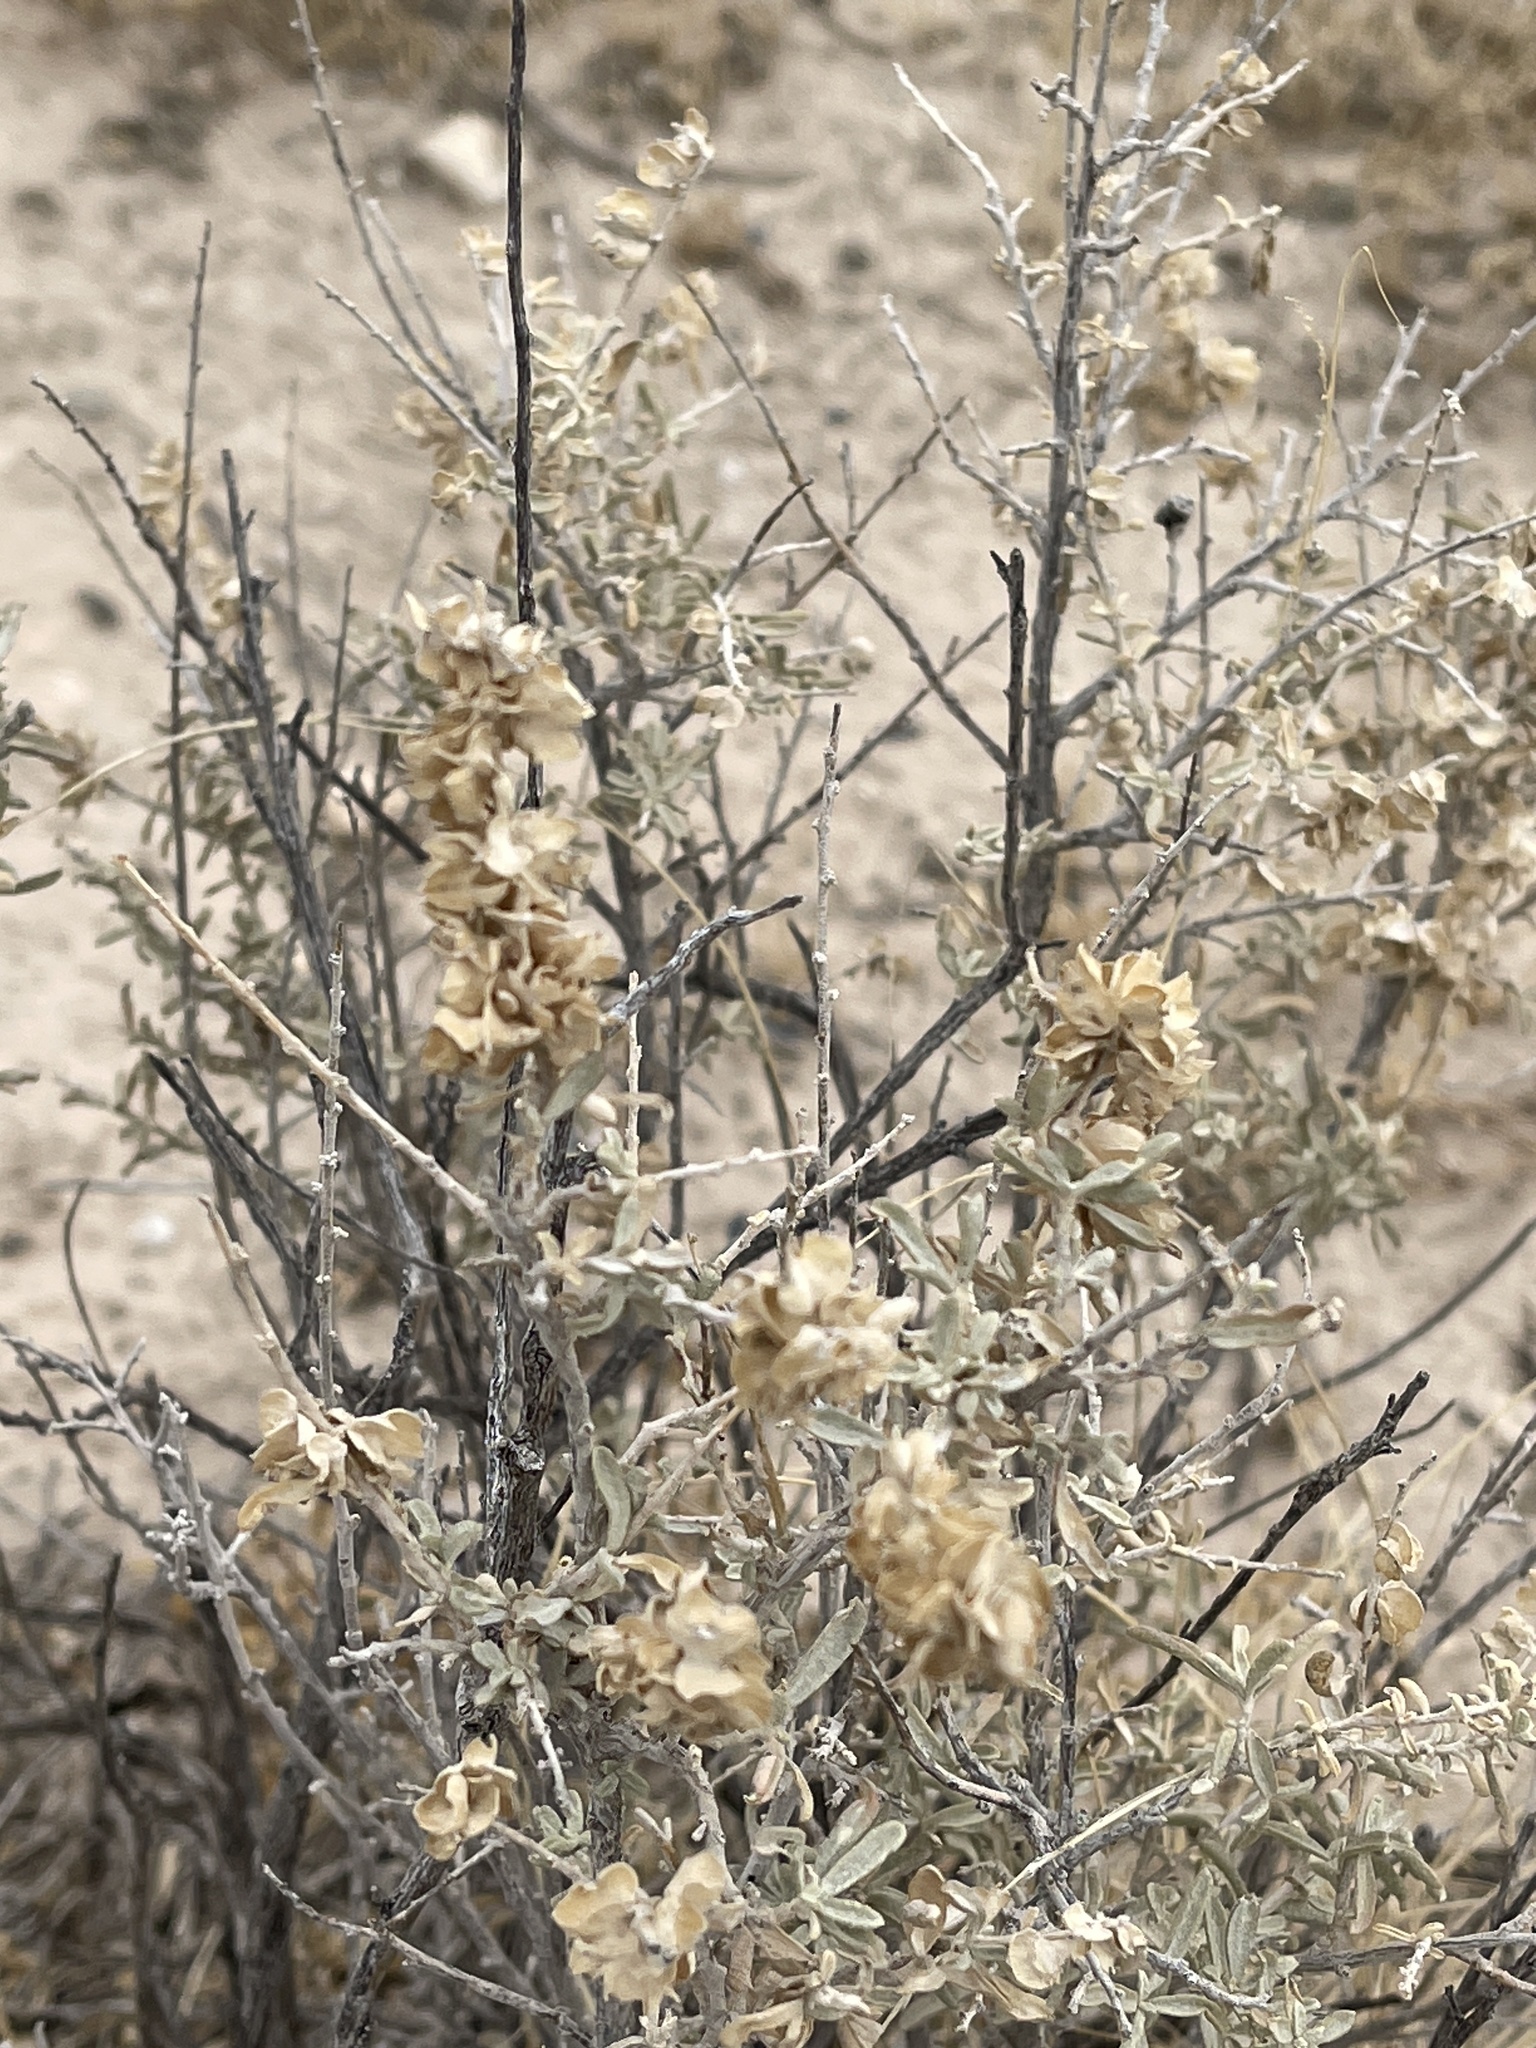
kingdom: Plantae
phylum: Tracheophyta
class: Magnoliopsida
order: Caryophyllales
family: Amaranthaceae
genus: Atriplex
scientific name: Atriplex canescens
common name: Four-wing saltbush
